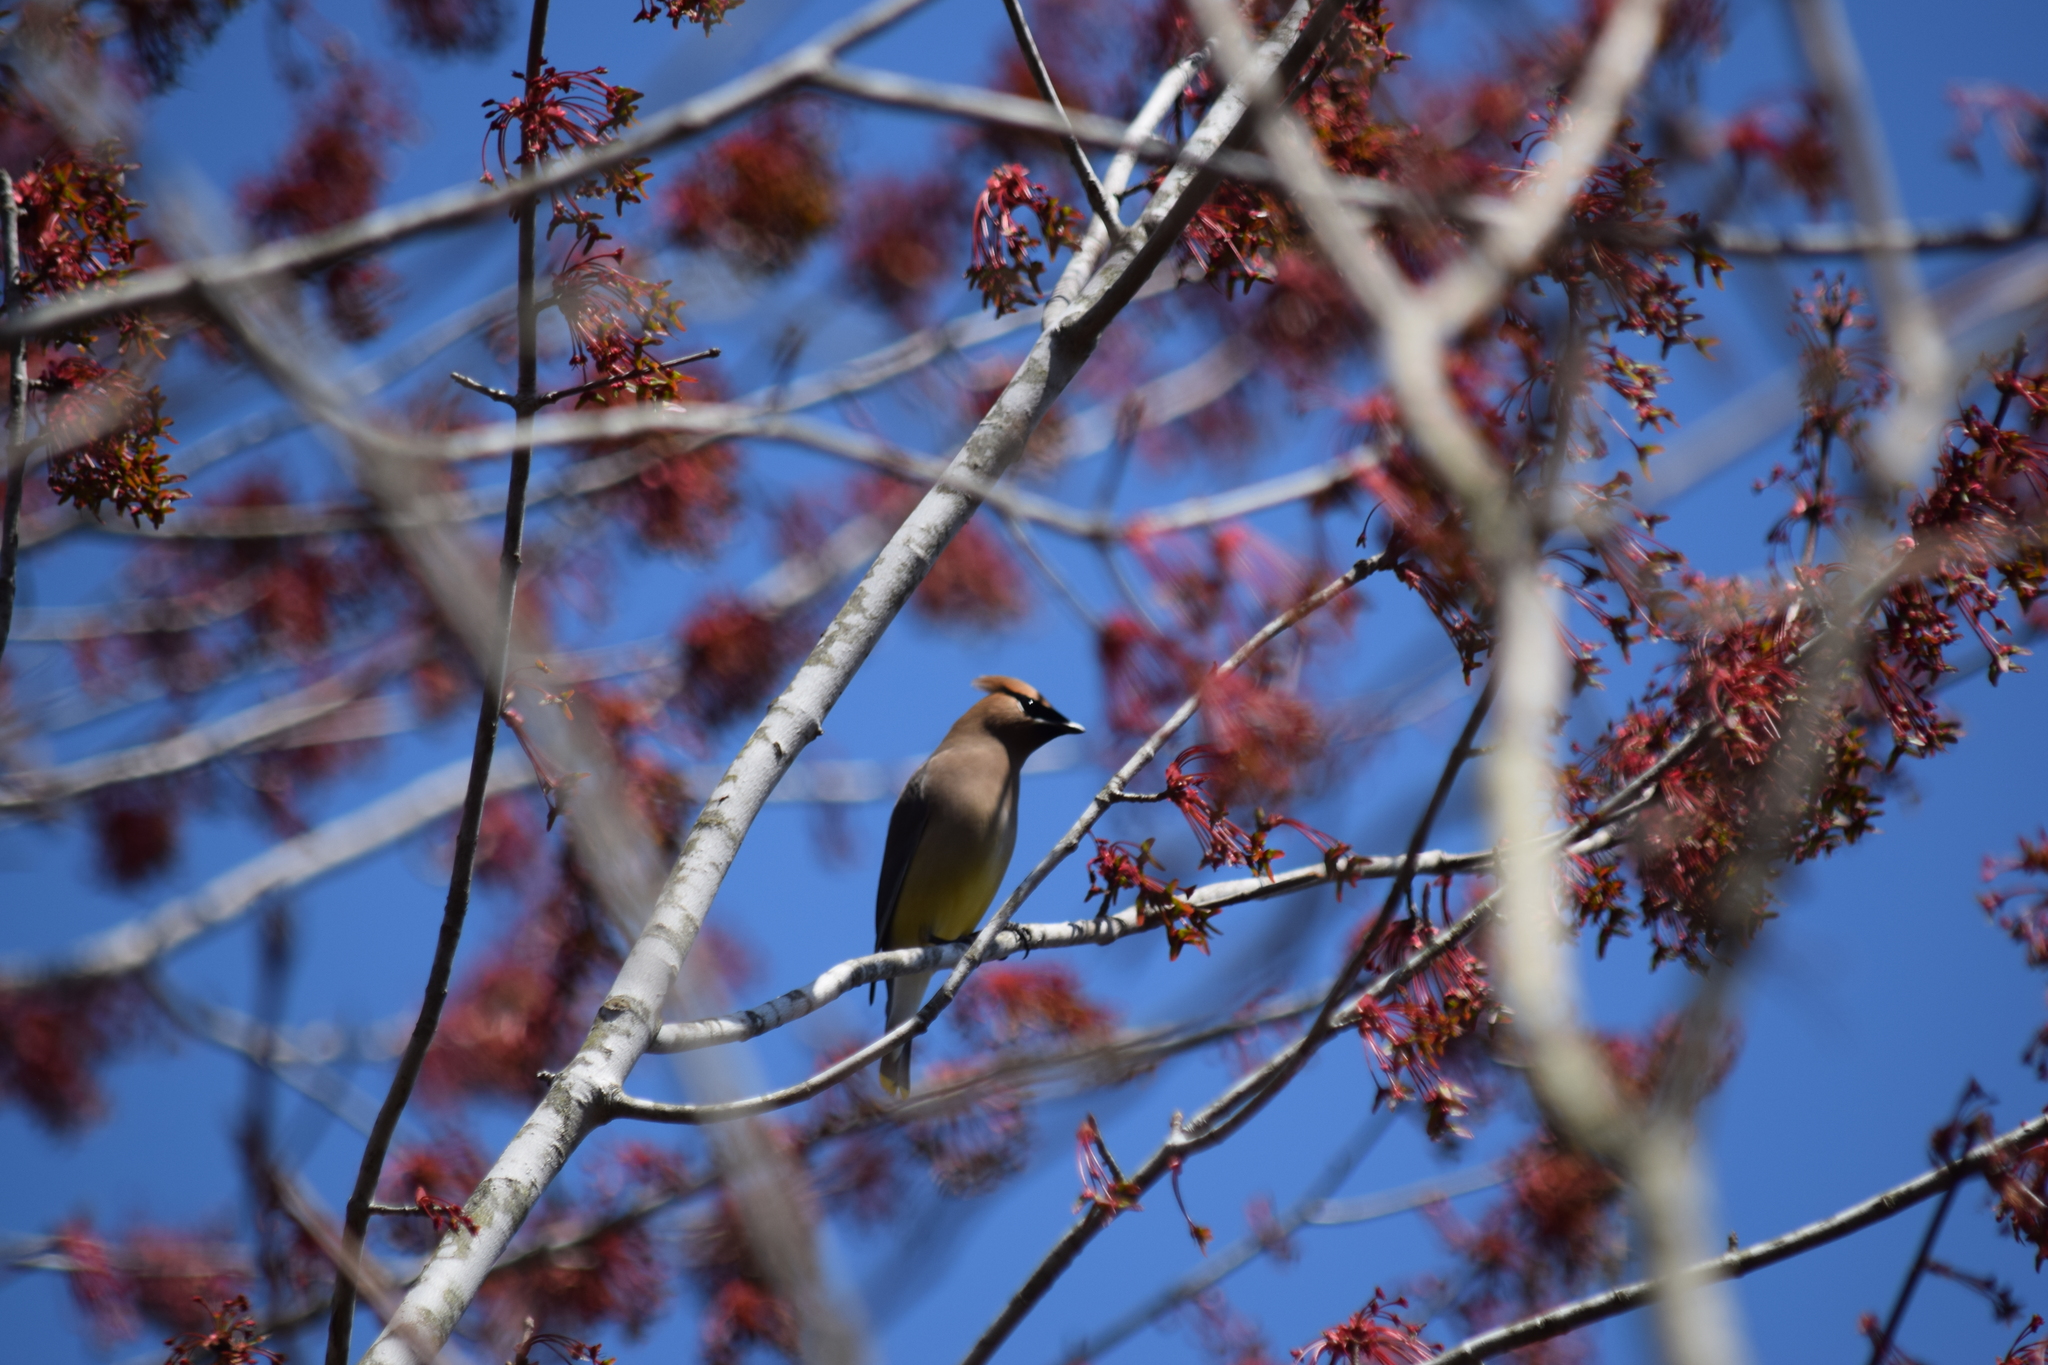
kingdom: Animalia
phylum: Chordata
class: Aves
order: Passeriformes
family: Bombycillidae
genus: Bombycilla
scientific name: Bombycilla cedrorum
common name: Cedar waxwing
